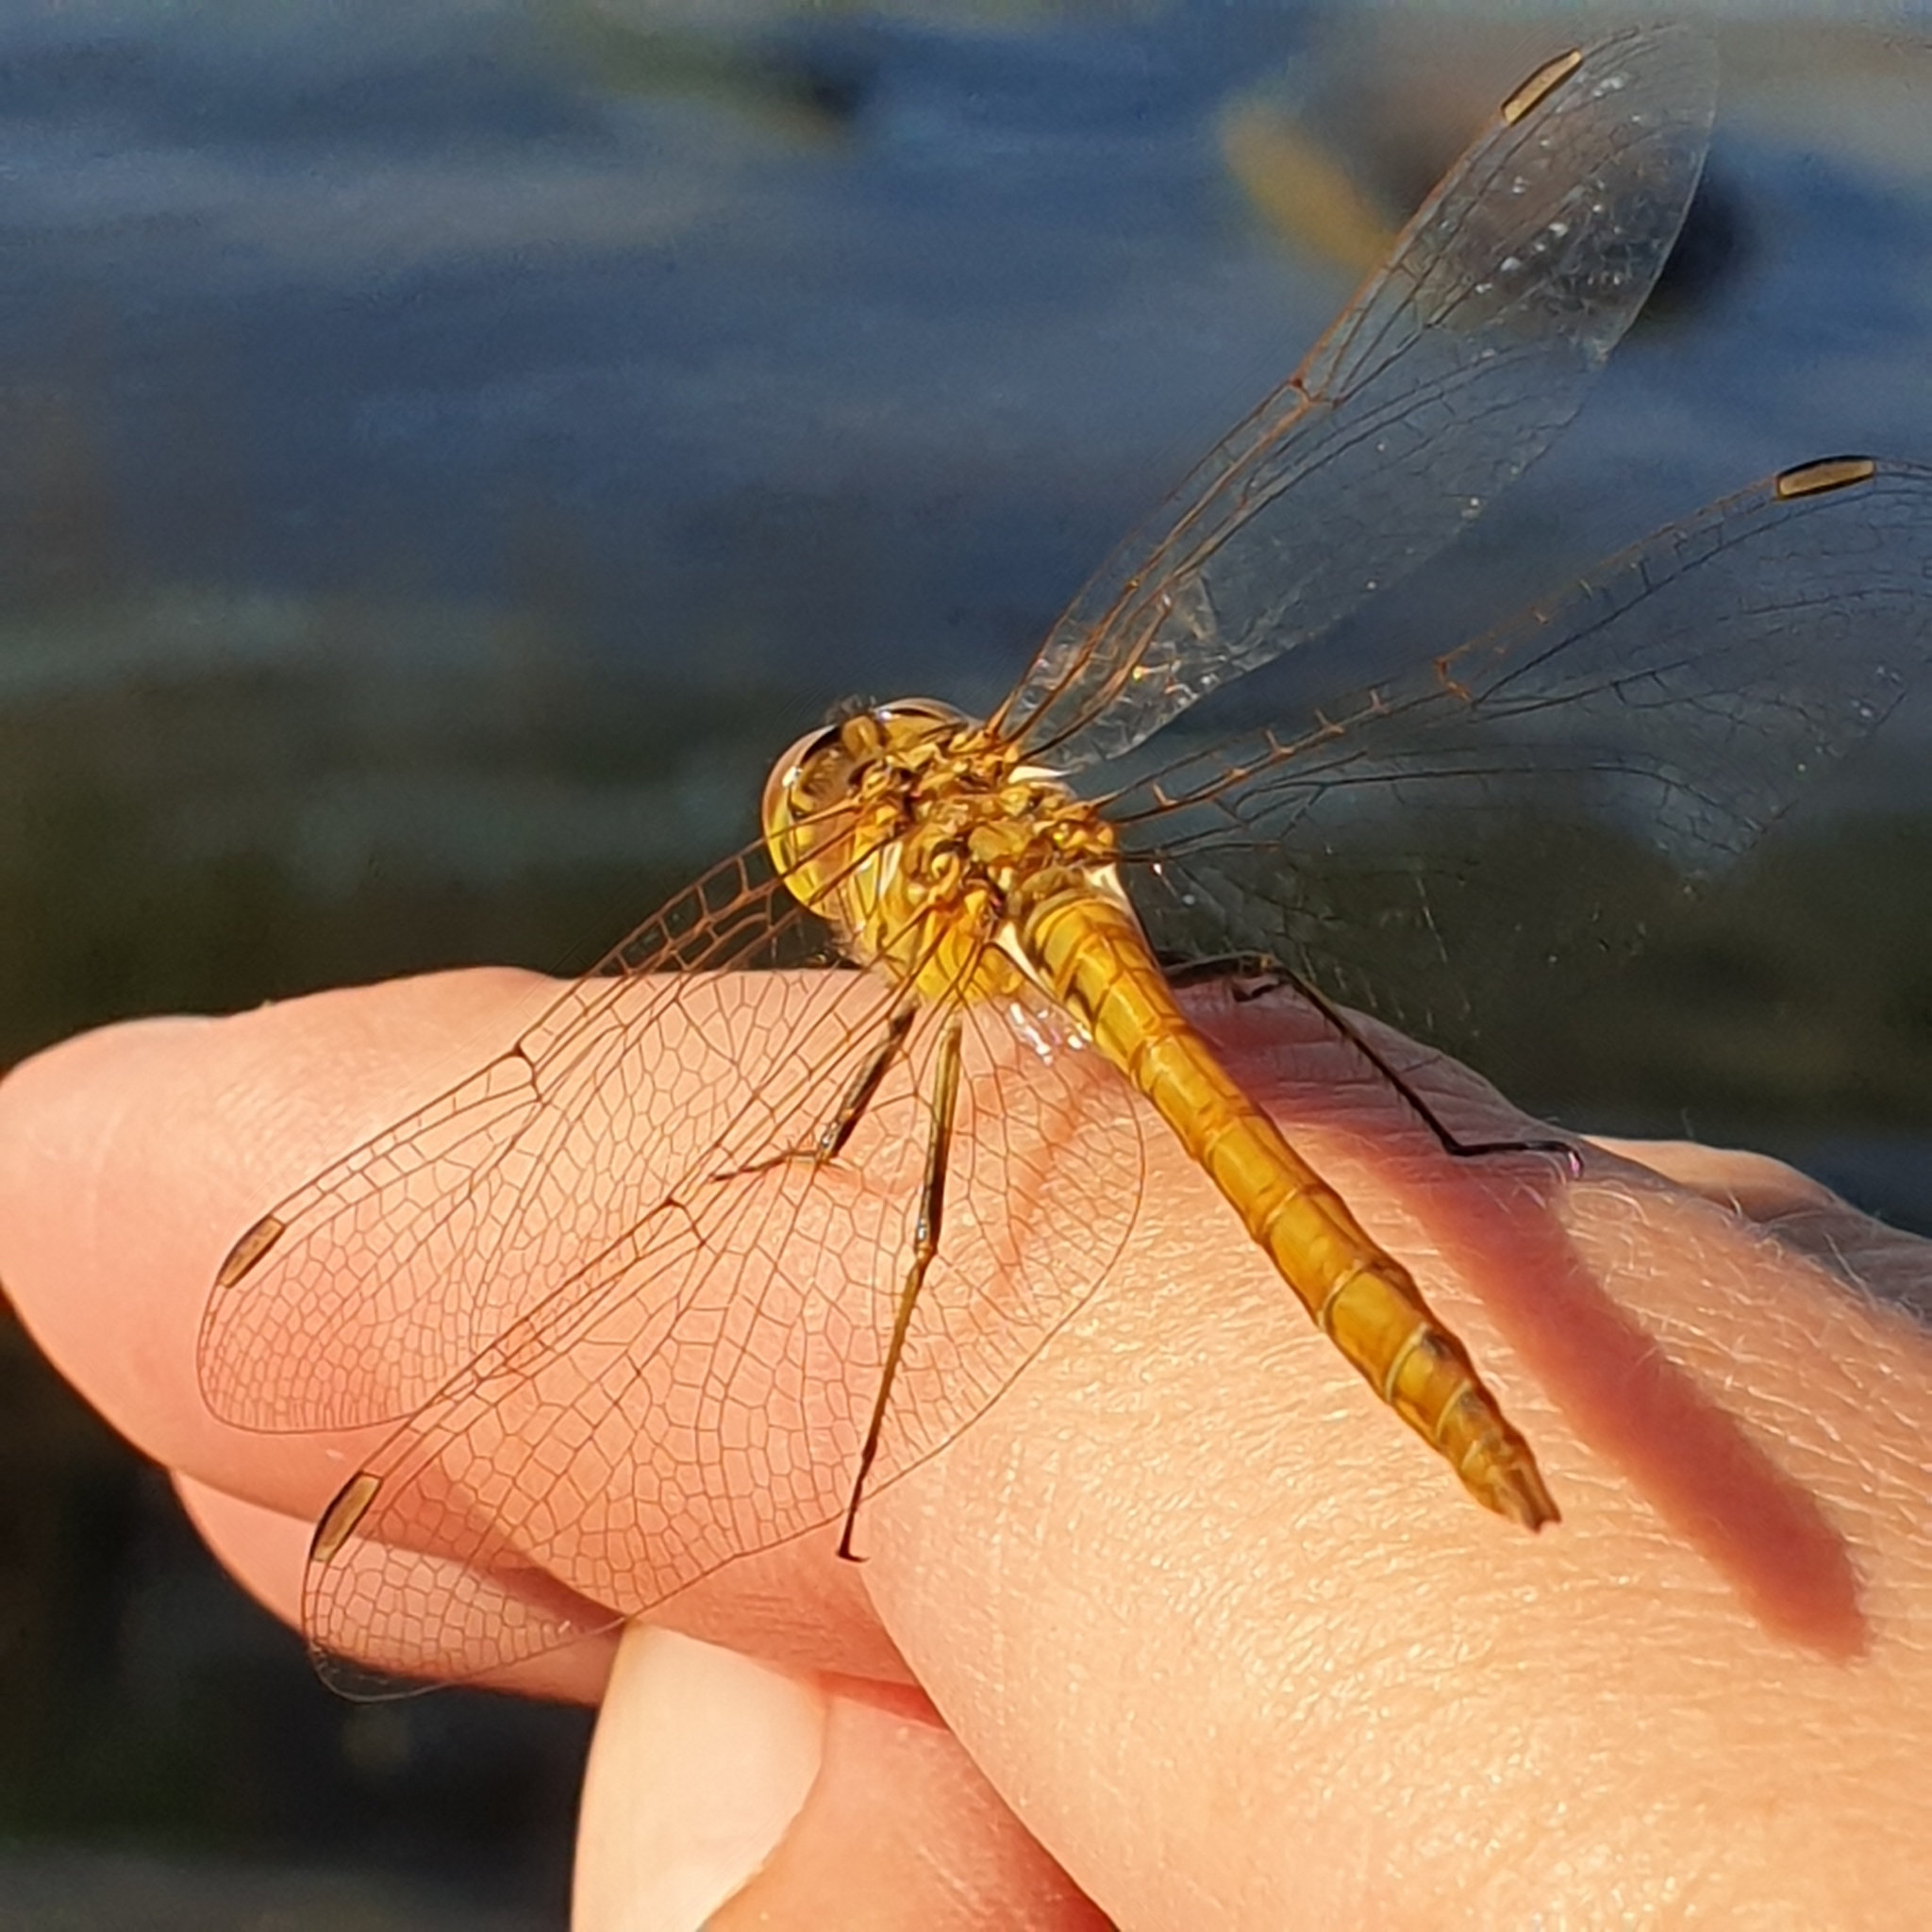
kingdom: Animalia
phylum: Arthropoda
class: Insecta
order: Odonata
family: Libellulidae
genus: Sympetrum
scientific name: Sympetrum vulgatum
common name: Vagrant darter
